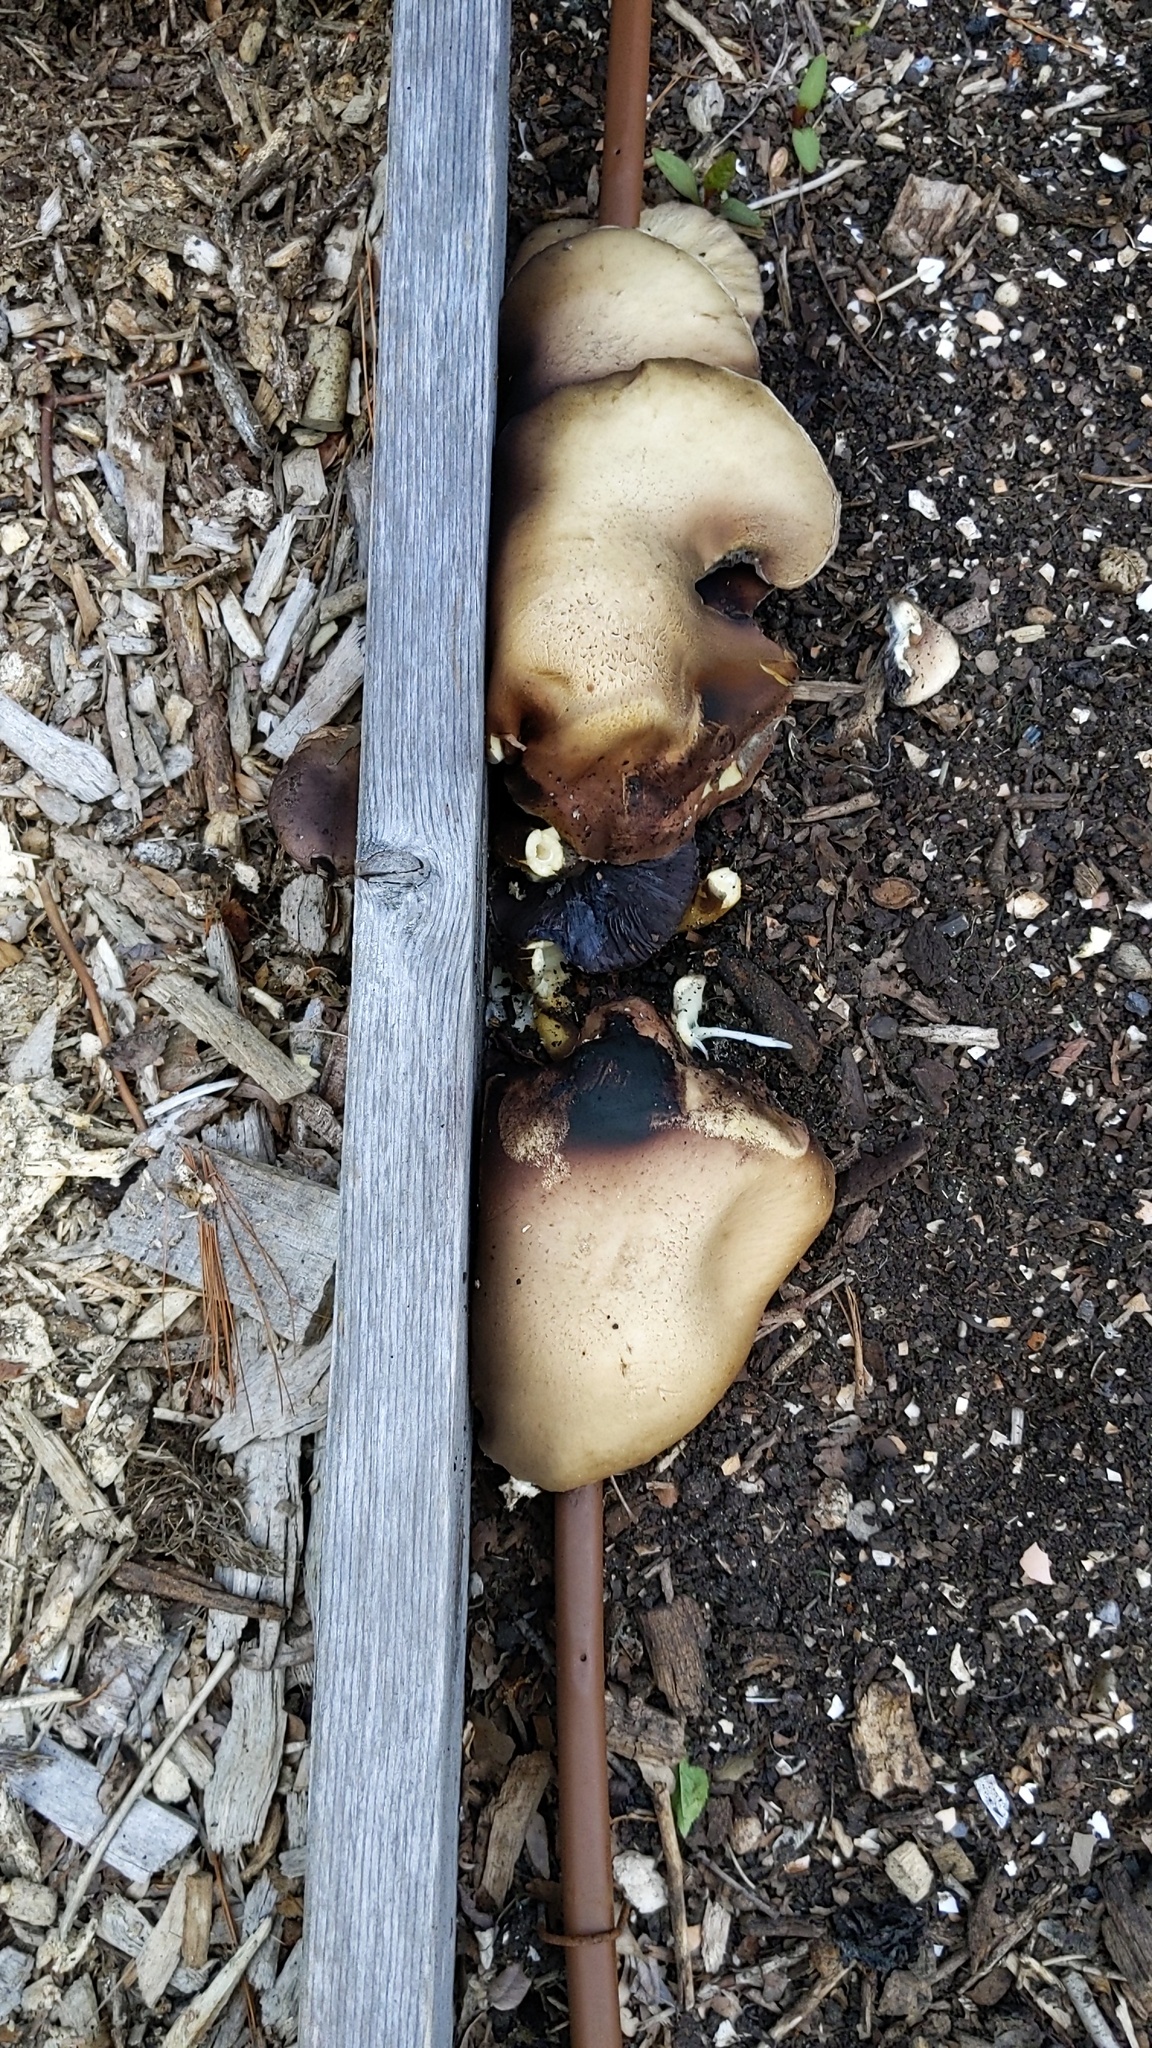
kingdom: Fungi
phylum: Basidiomycota
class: Agaricomycetes
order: Agaricales
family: Strophariaceae
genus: Stropharia
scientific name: Stropharia rugosoannulata
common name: Wine roundhead
